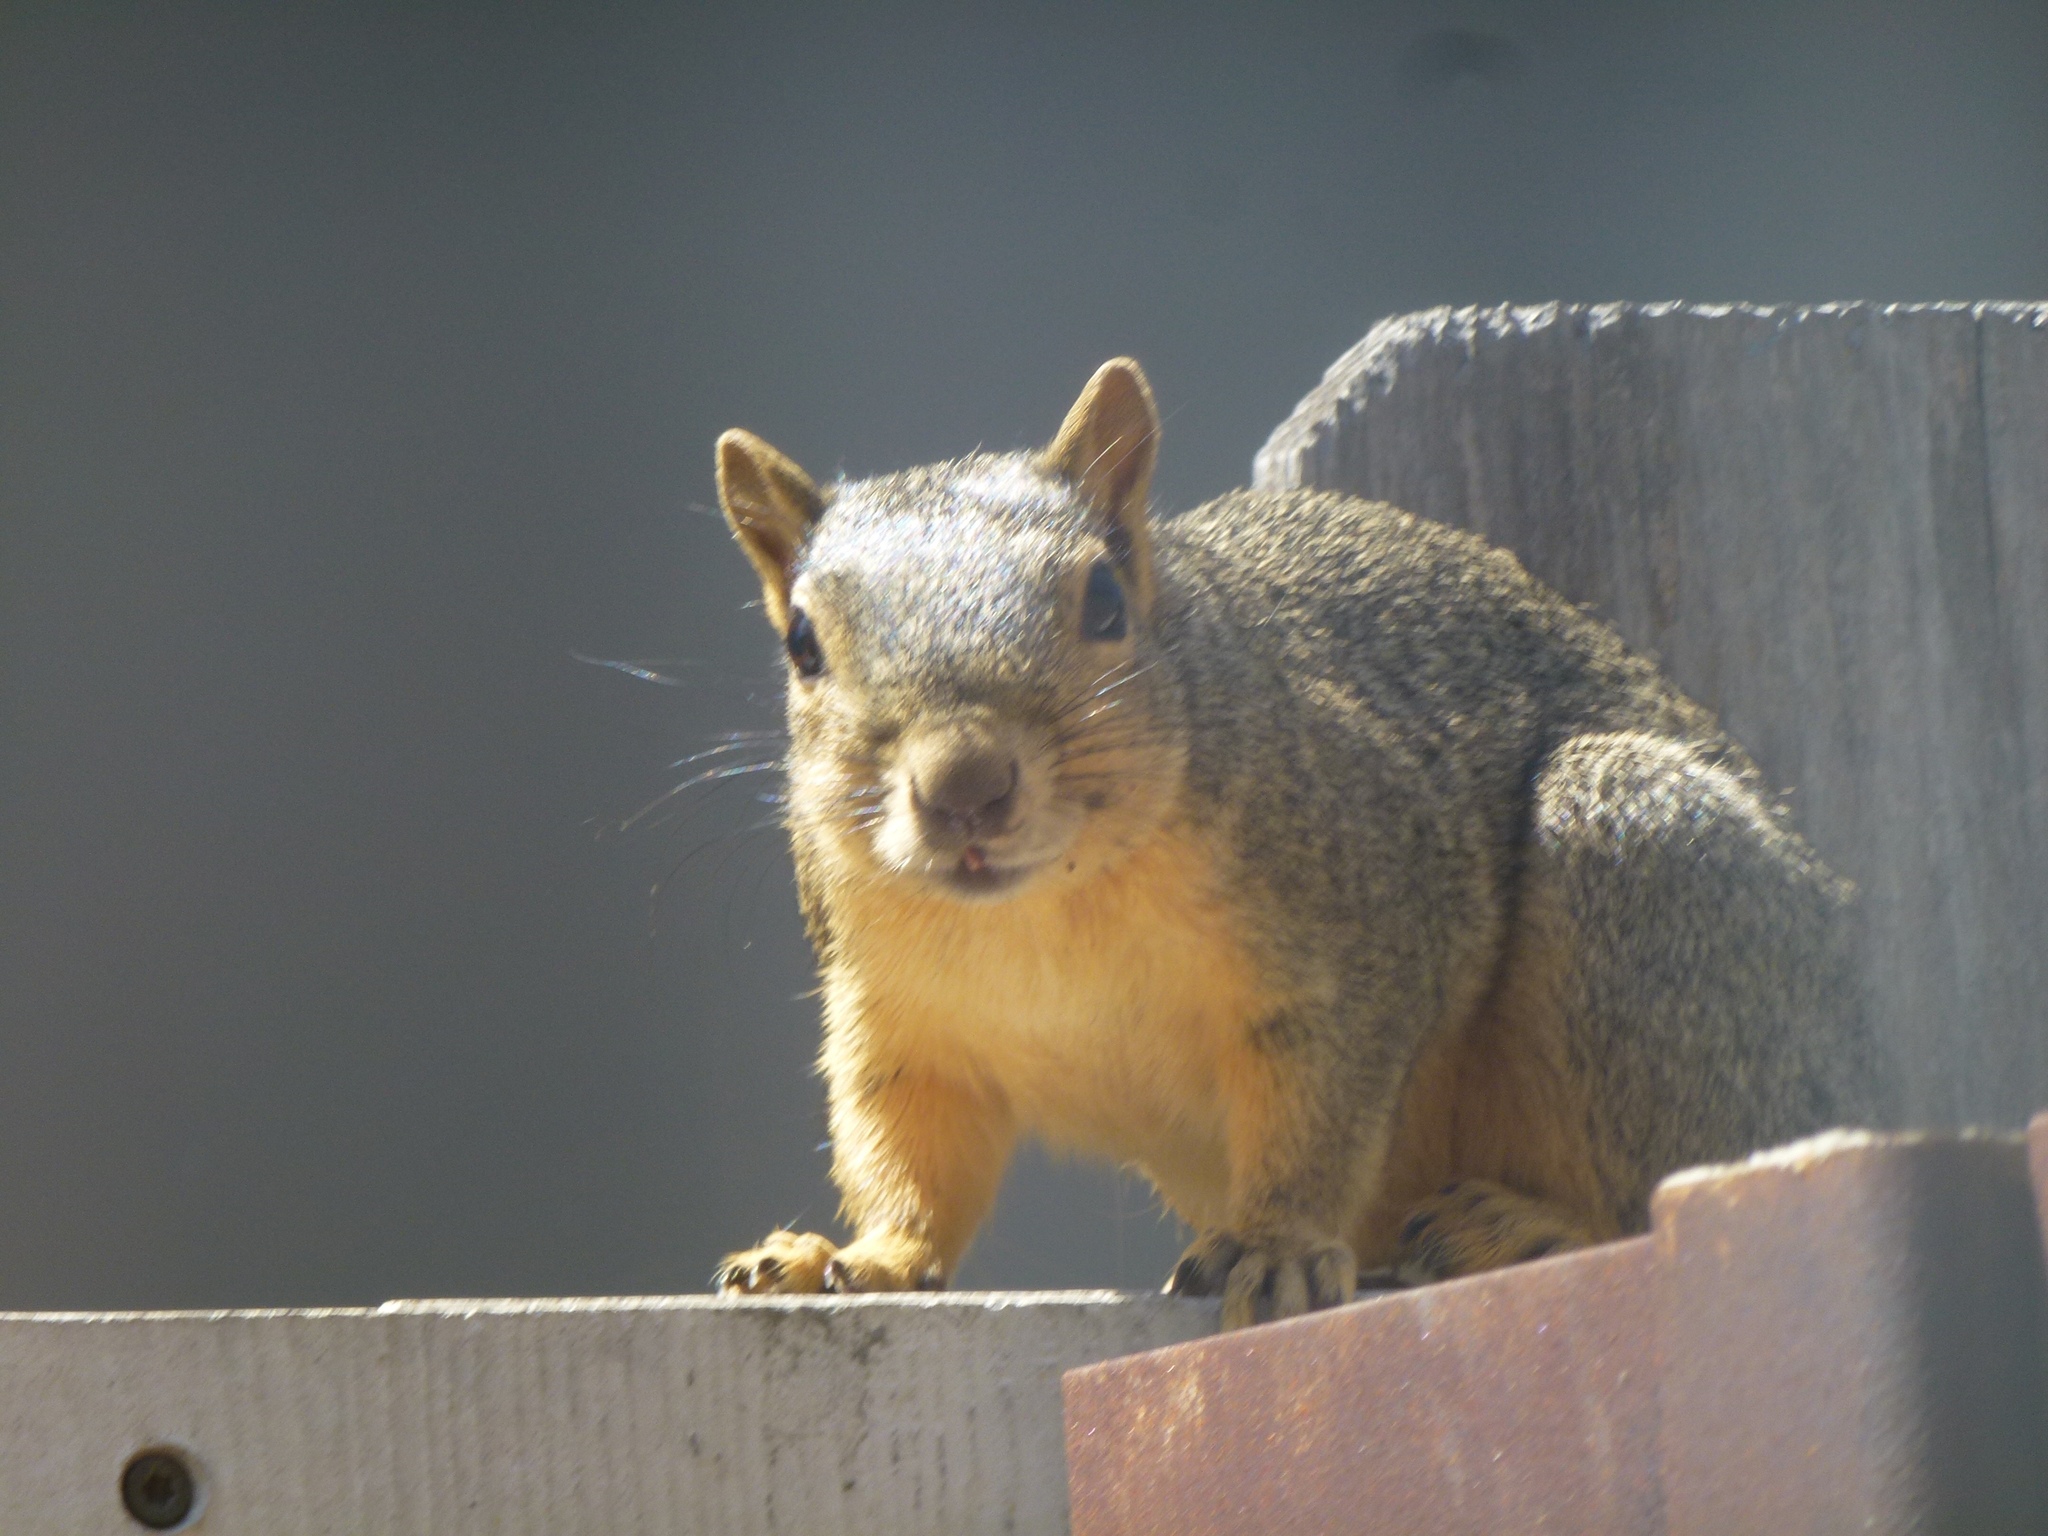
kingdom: Animalia
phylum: Chordata
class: Mammalia
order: Rodentia
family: Sciuridae
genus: Sciurus
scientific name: Sciurus niger
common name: Fox squirrel
